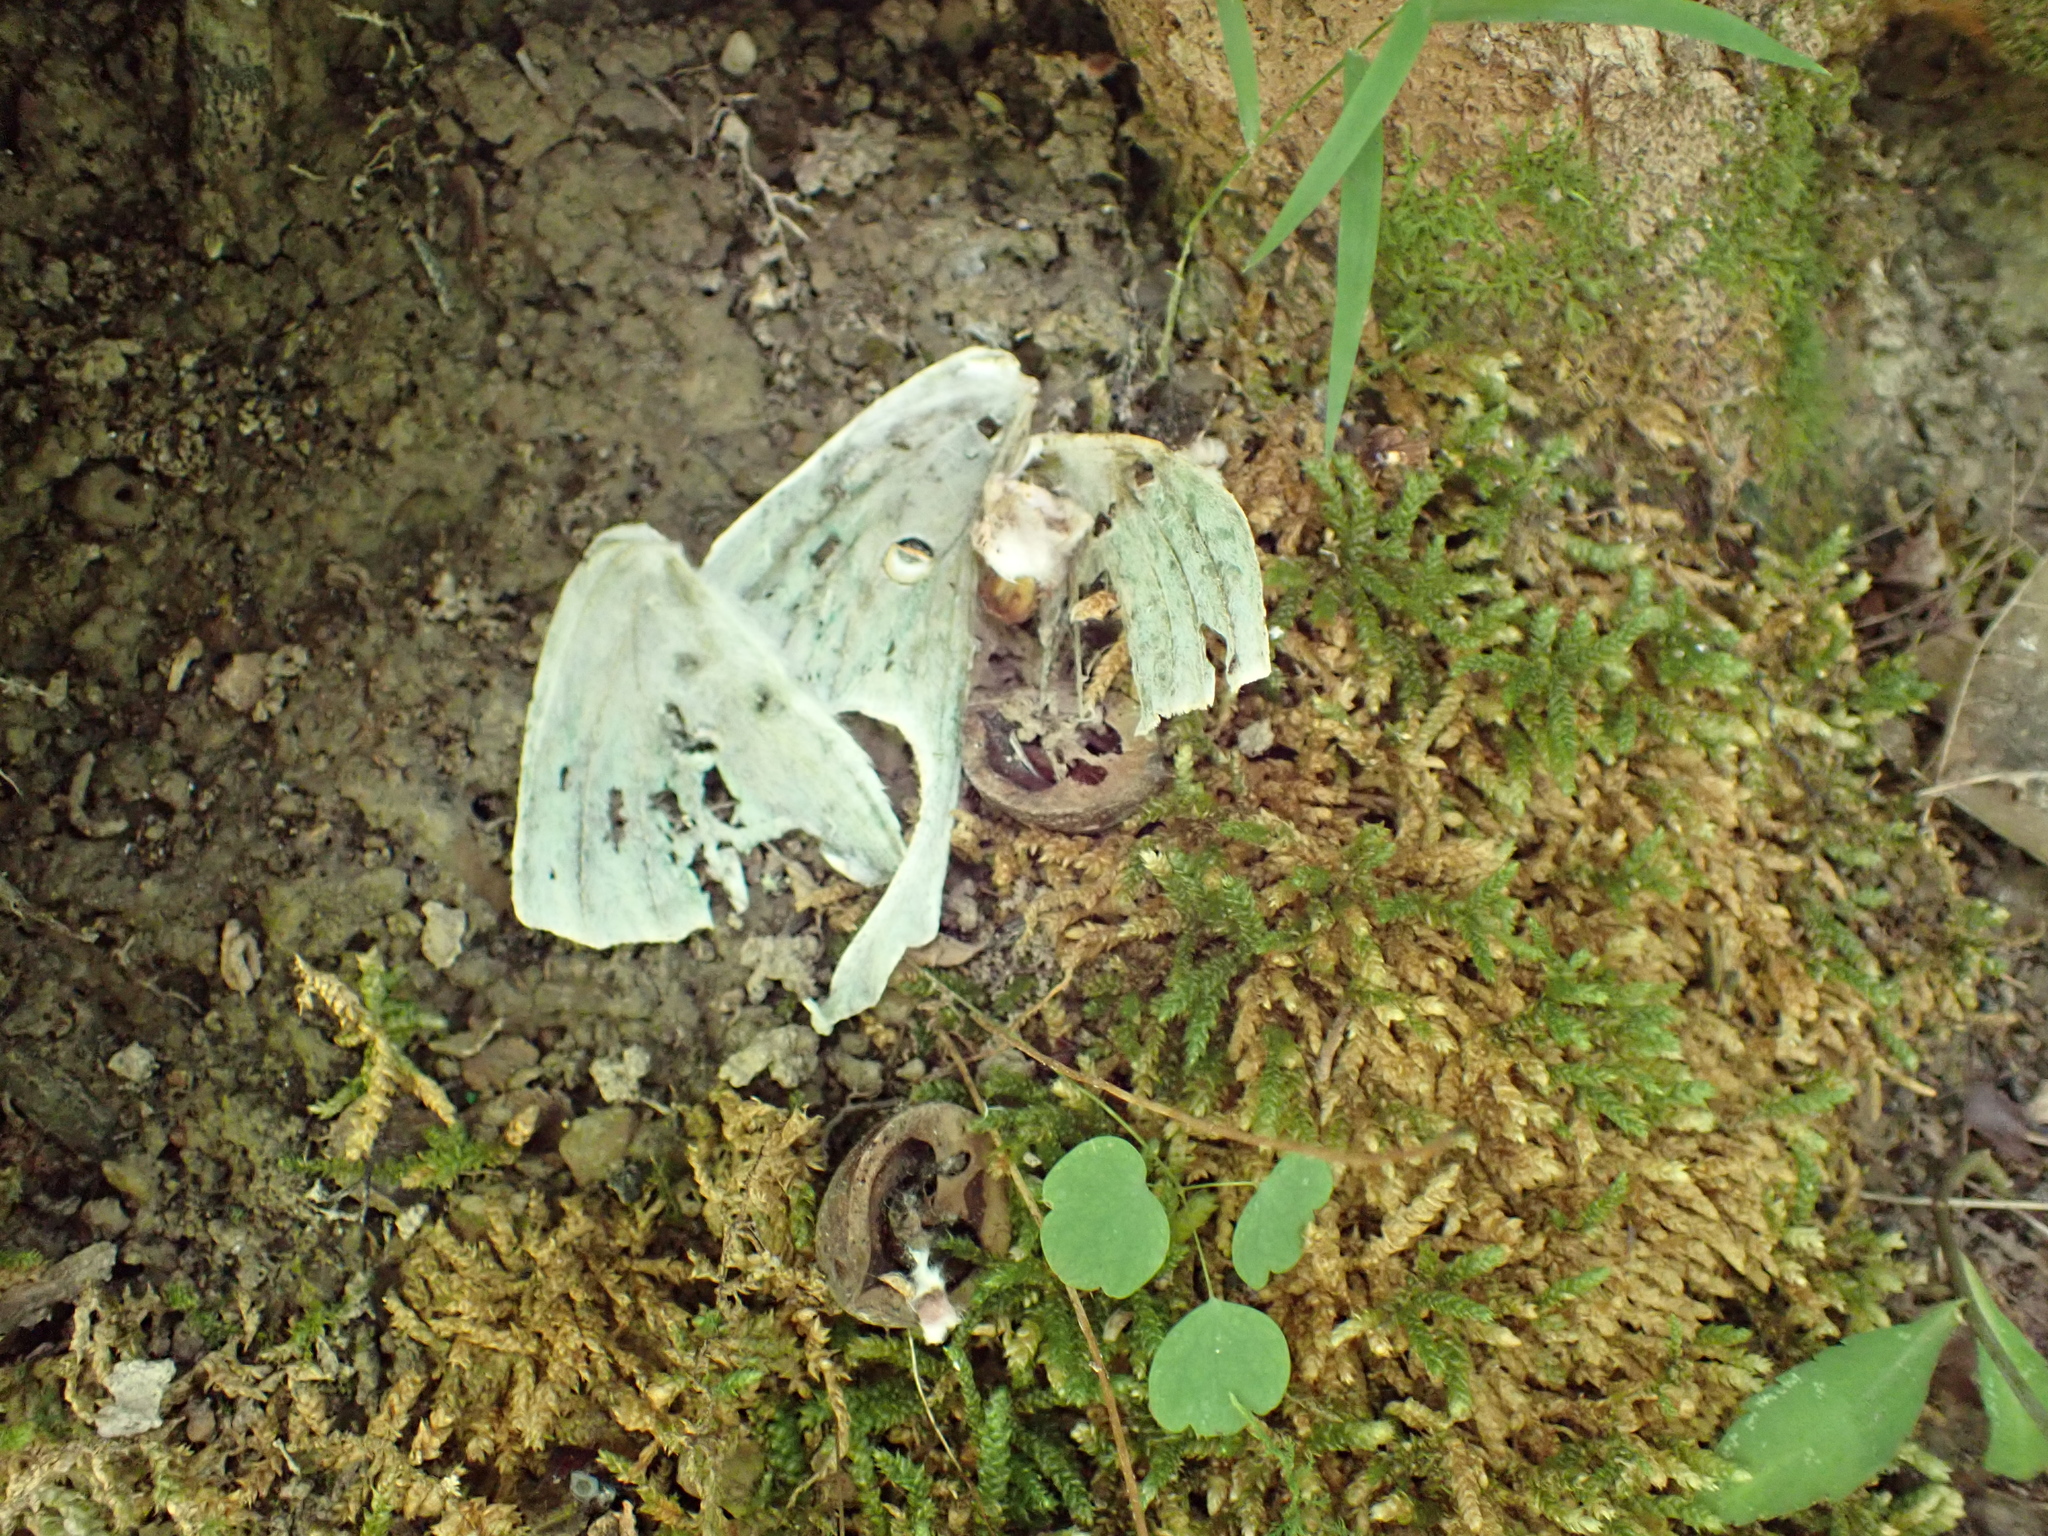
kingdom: Animalia
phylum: Arthropoda
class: Insecta
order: Lepidoptera
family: Saturniidae
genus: Actias
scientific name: Actias luna
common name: Luna moth
